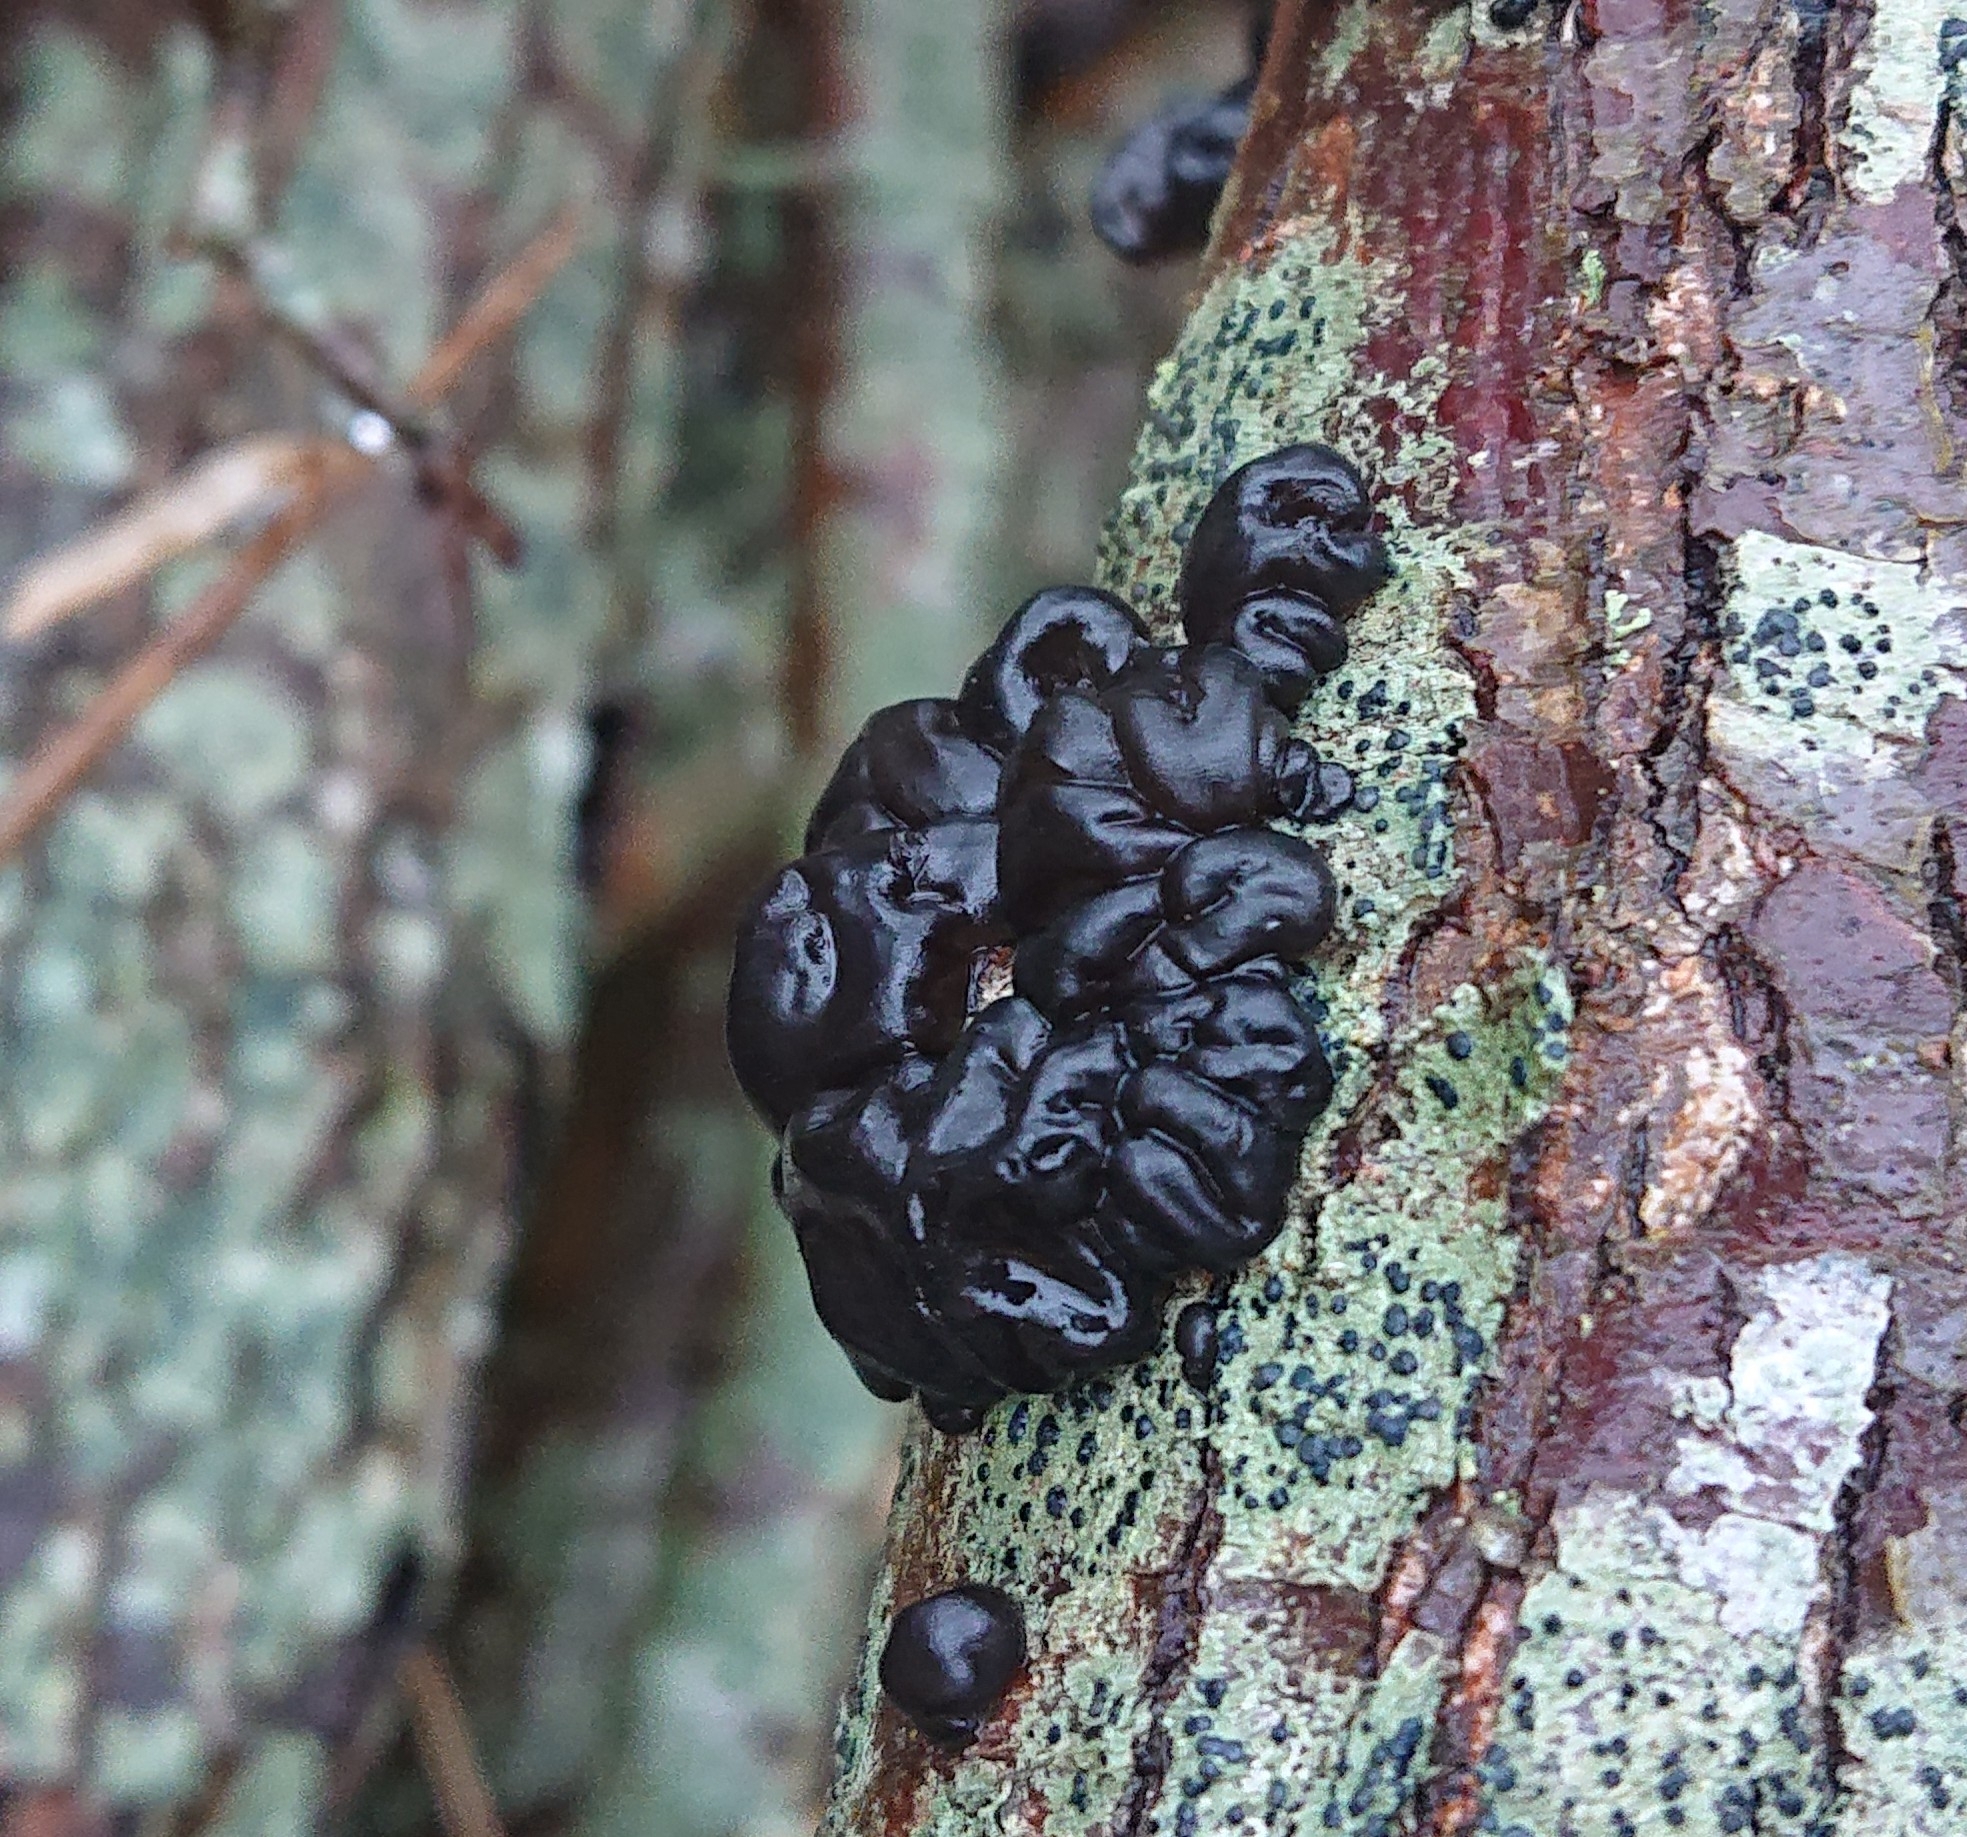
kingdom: Fungi
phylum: Basidiomycota
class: Agaricomycetes
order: Auriculariales
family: Auriculariaceae
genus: Exidia
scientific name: Exidia nigricans
